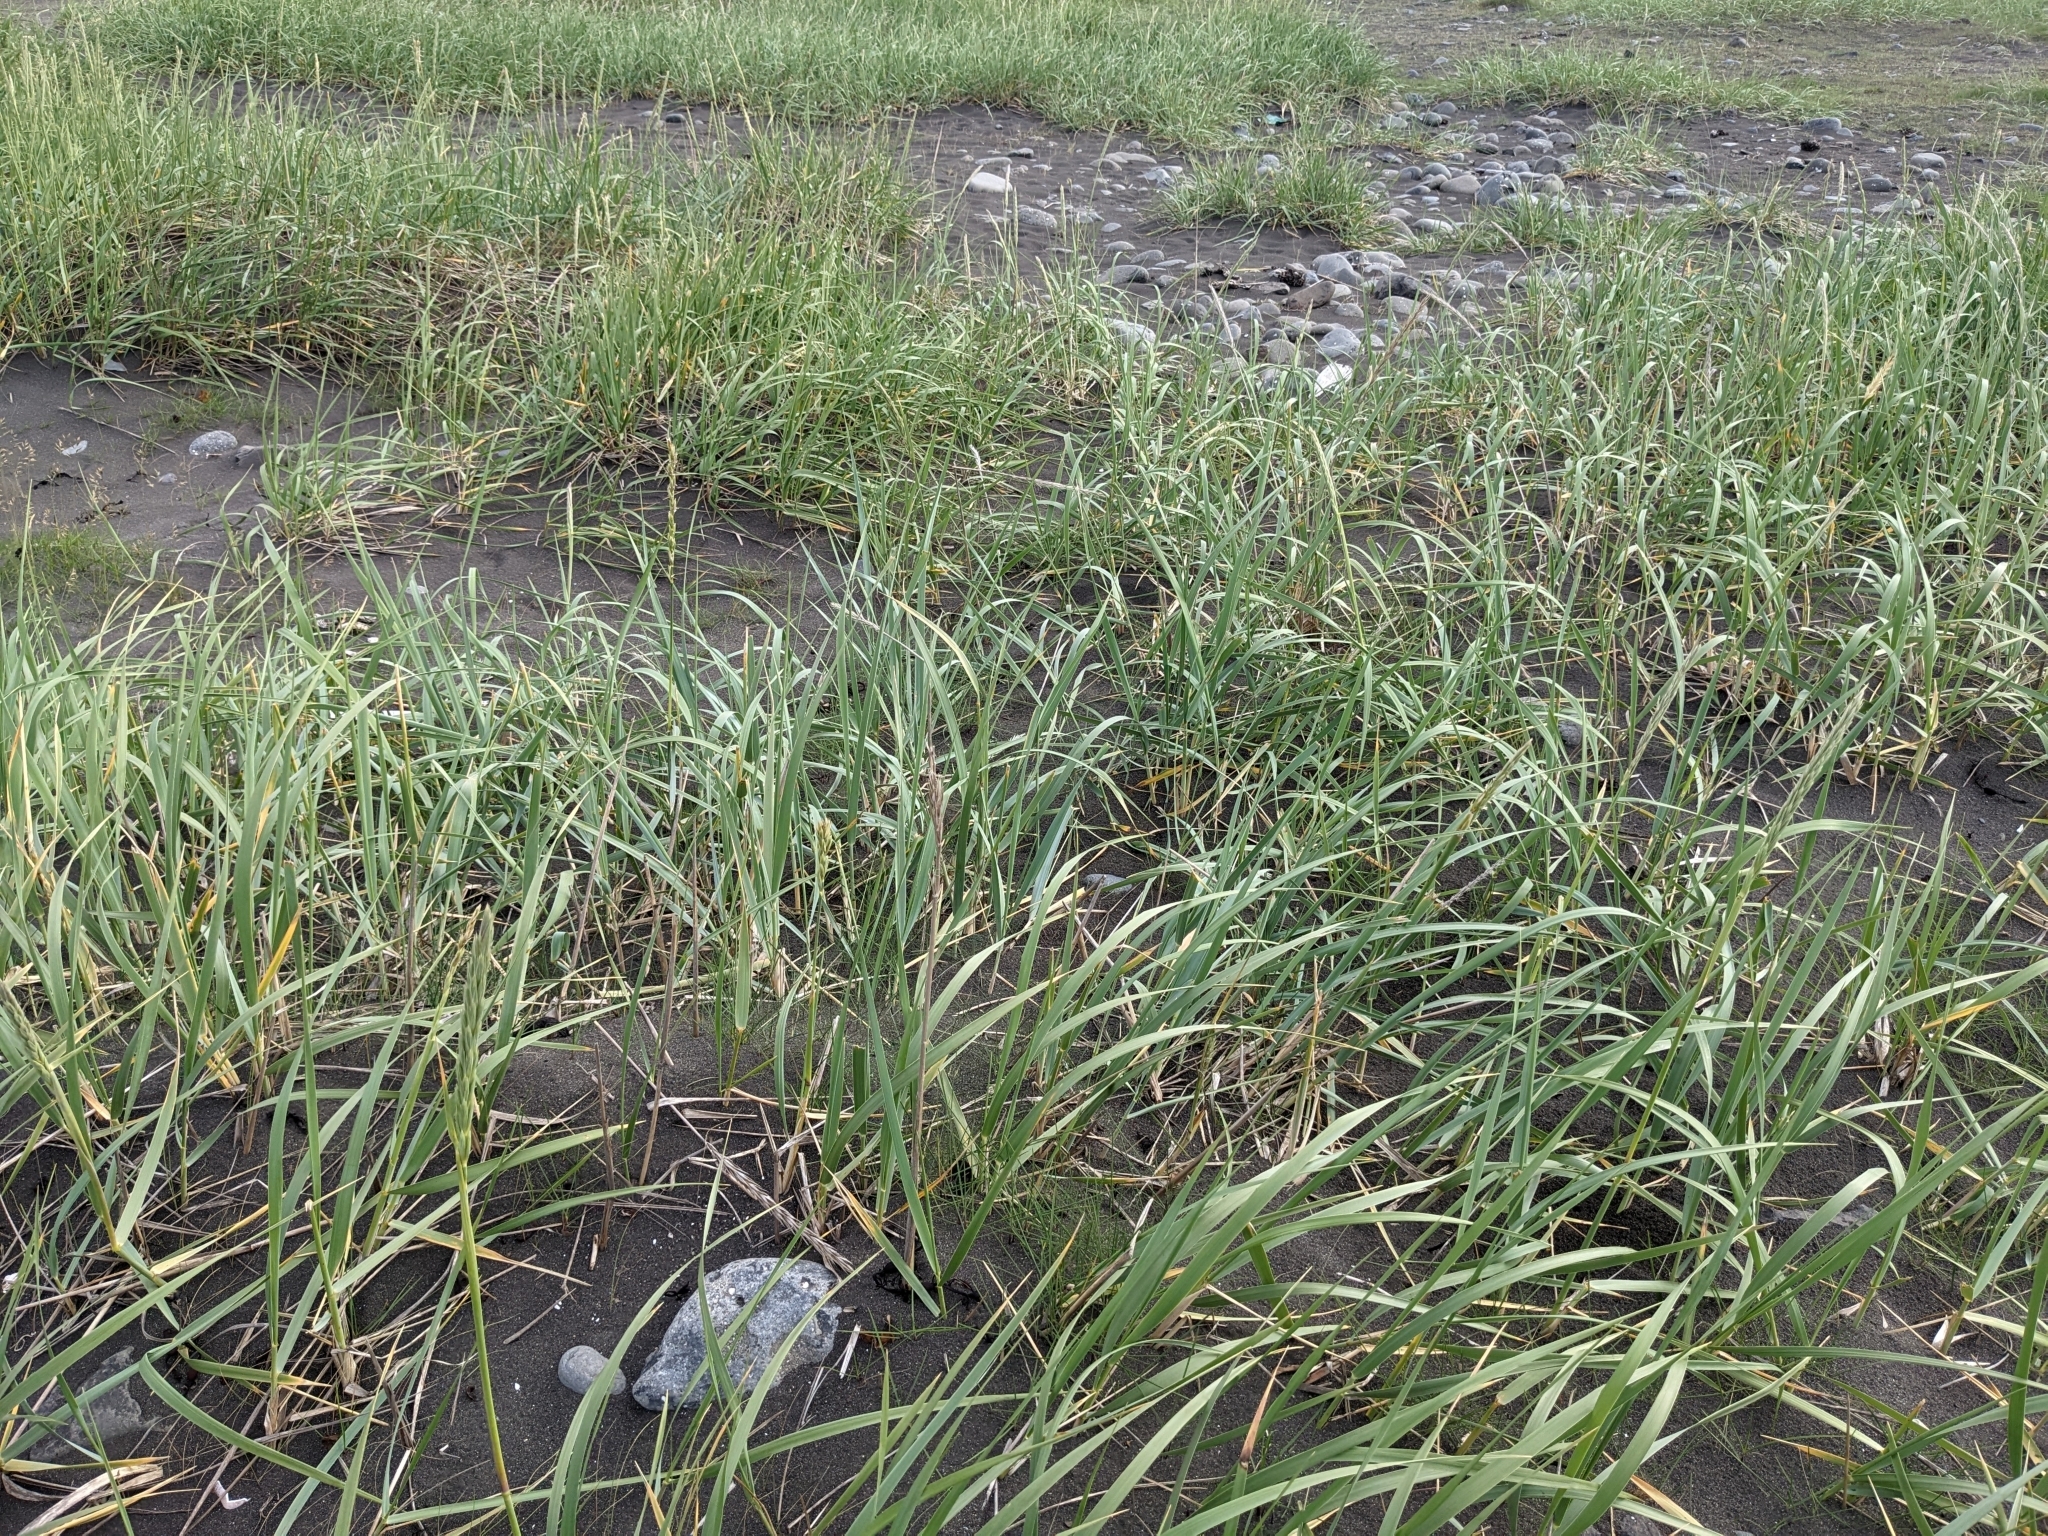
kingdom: Plantae
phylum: Tracheophyta
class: Liliopsida
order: Poales
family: Poaceae
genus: Leymus
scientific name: Leymus arenarius
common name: Lyme-grass
